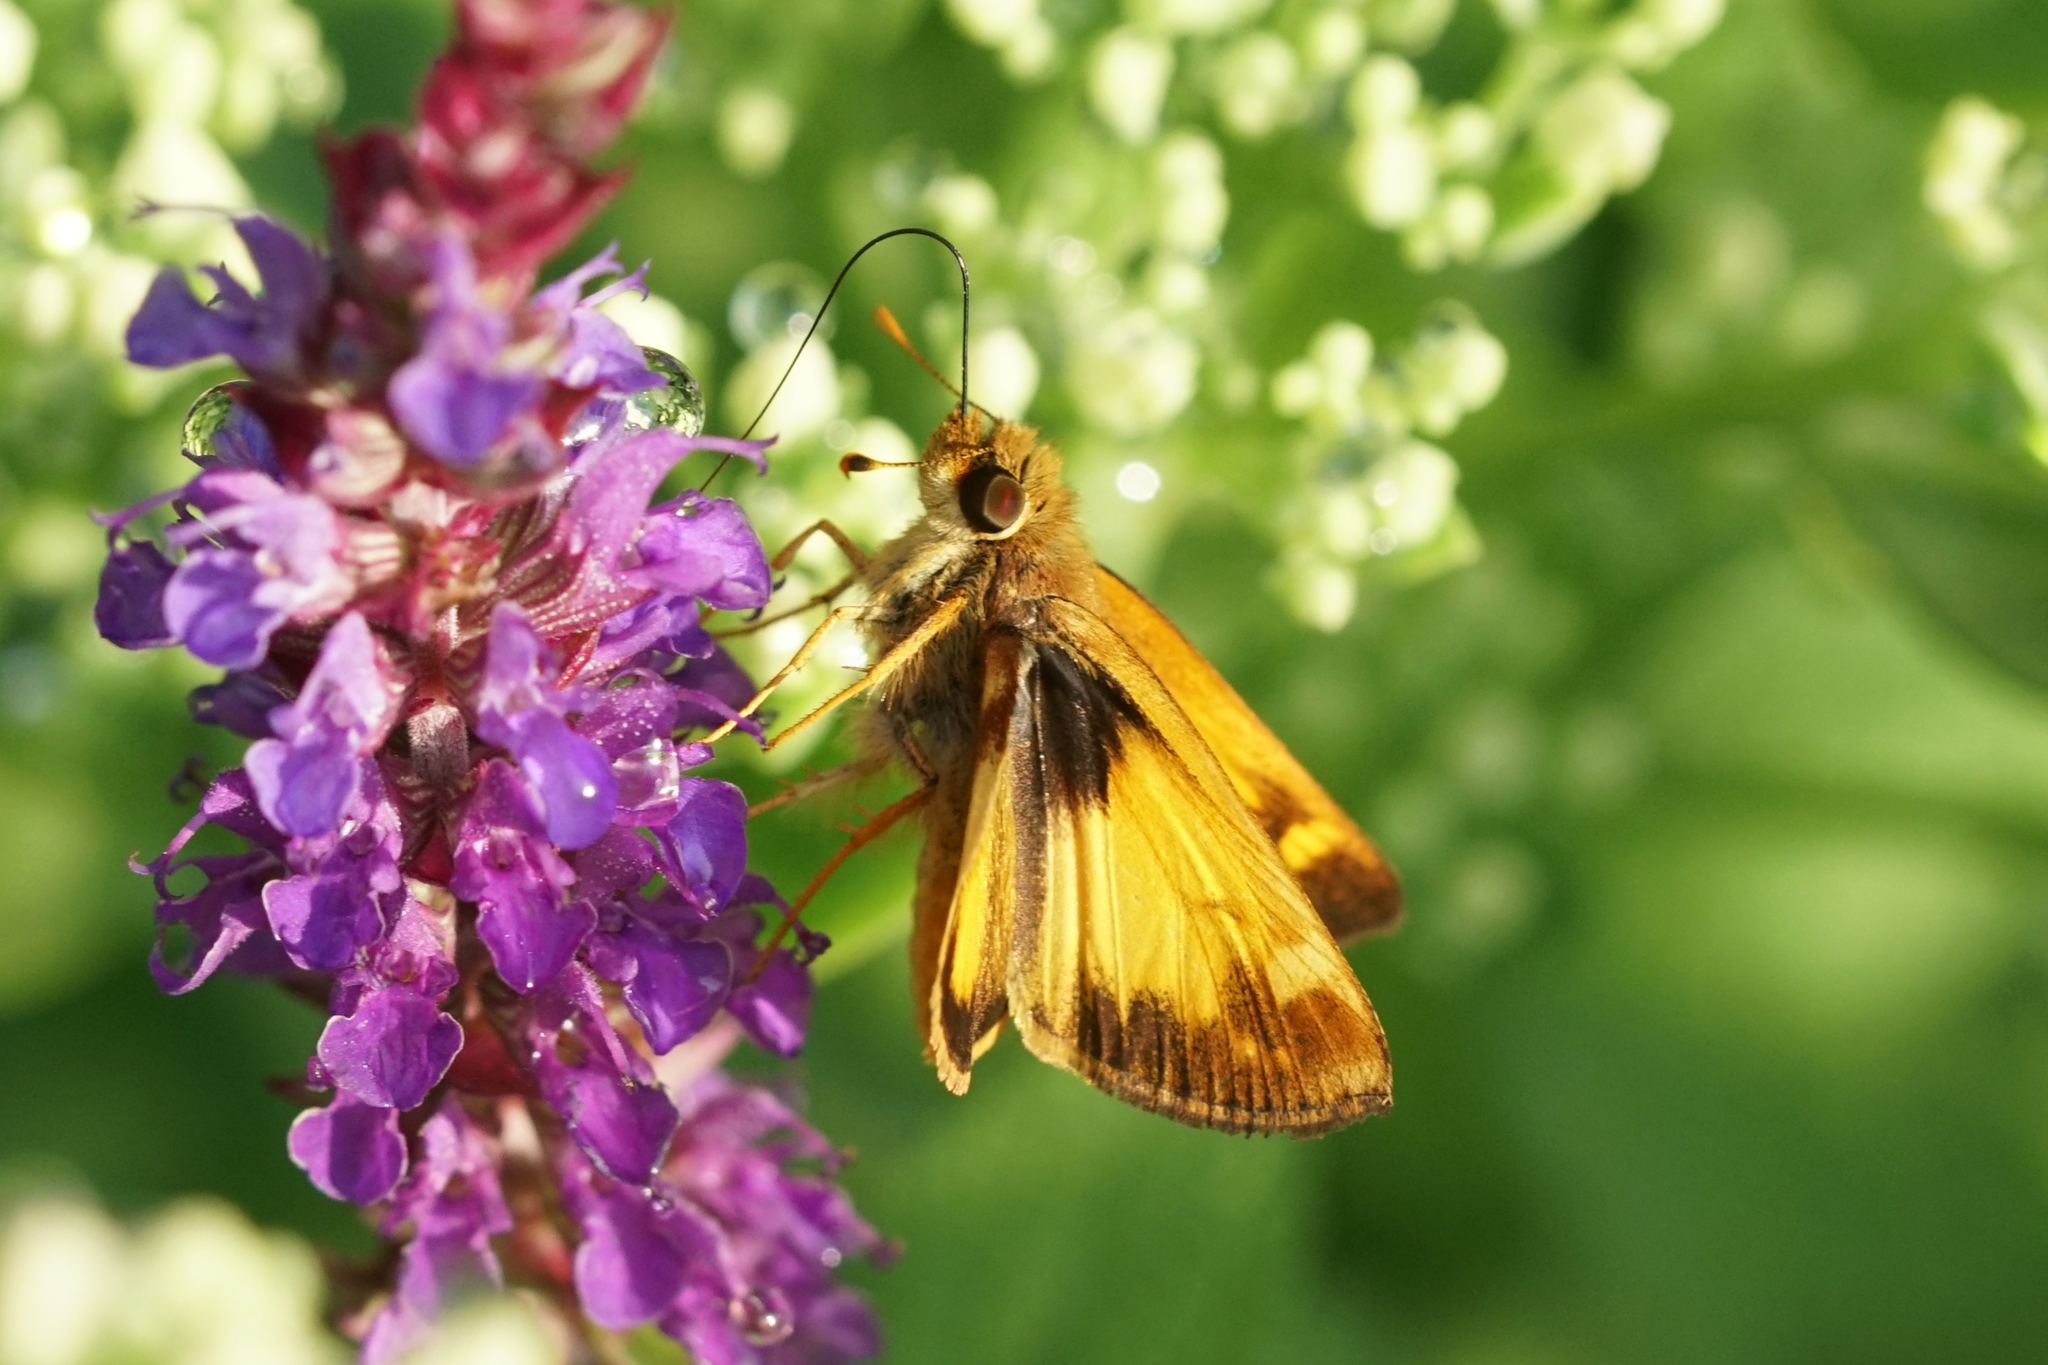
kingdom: Animalia
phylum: Arthropoda
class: Insecta
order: Lepidoptera
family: Hesperiidae
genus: Lon
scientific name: Lon zabulon
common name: Zabulon skipper
